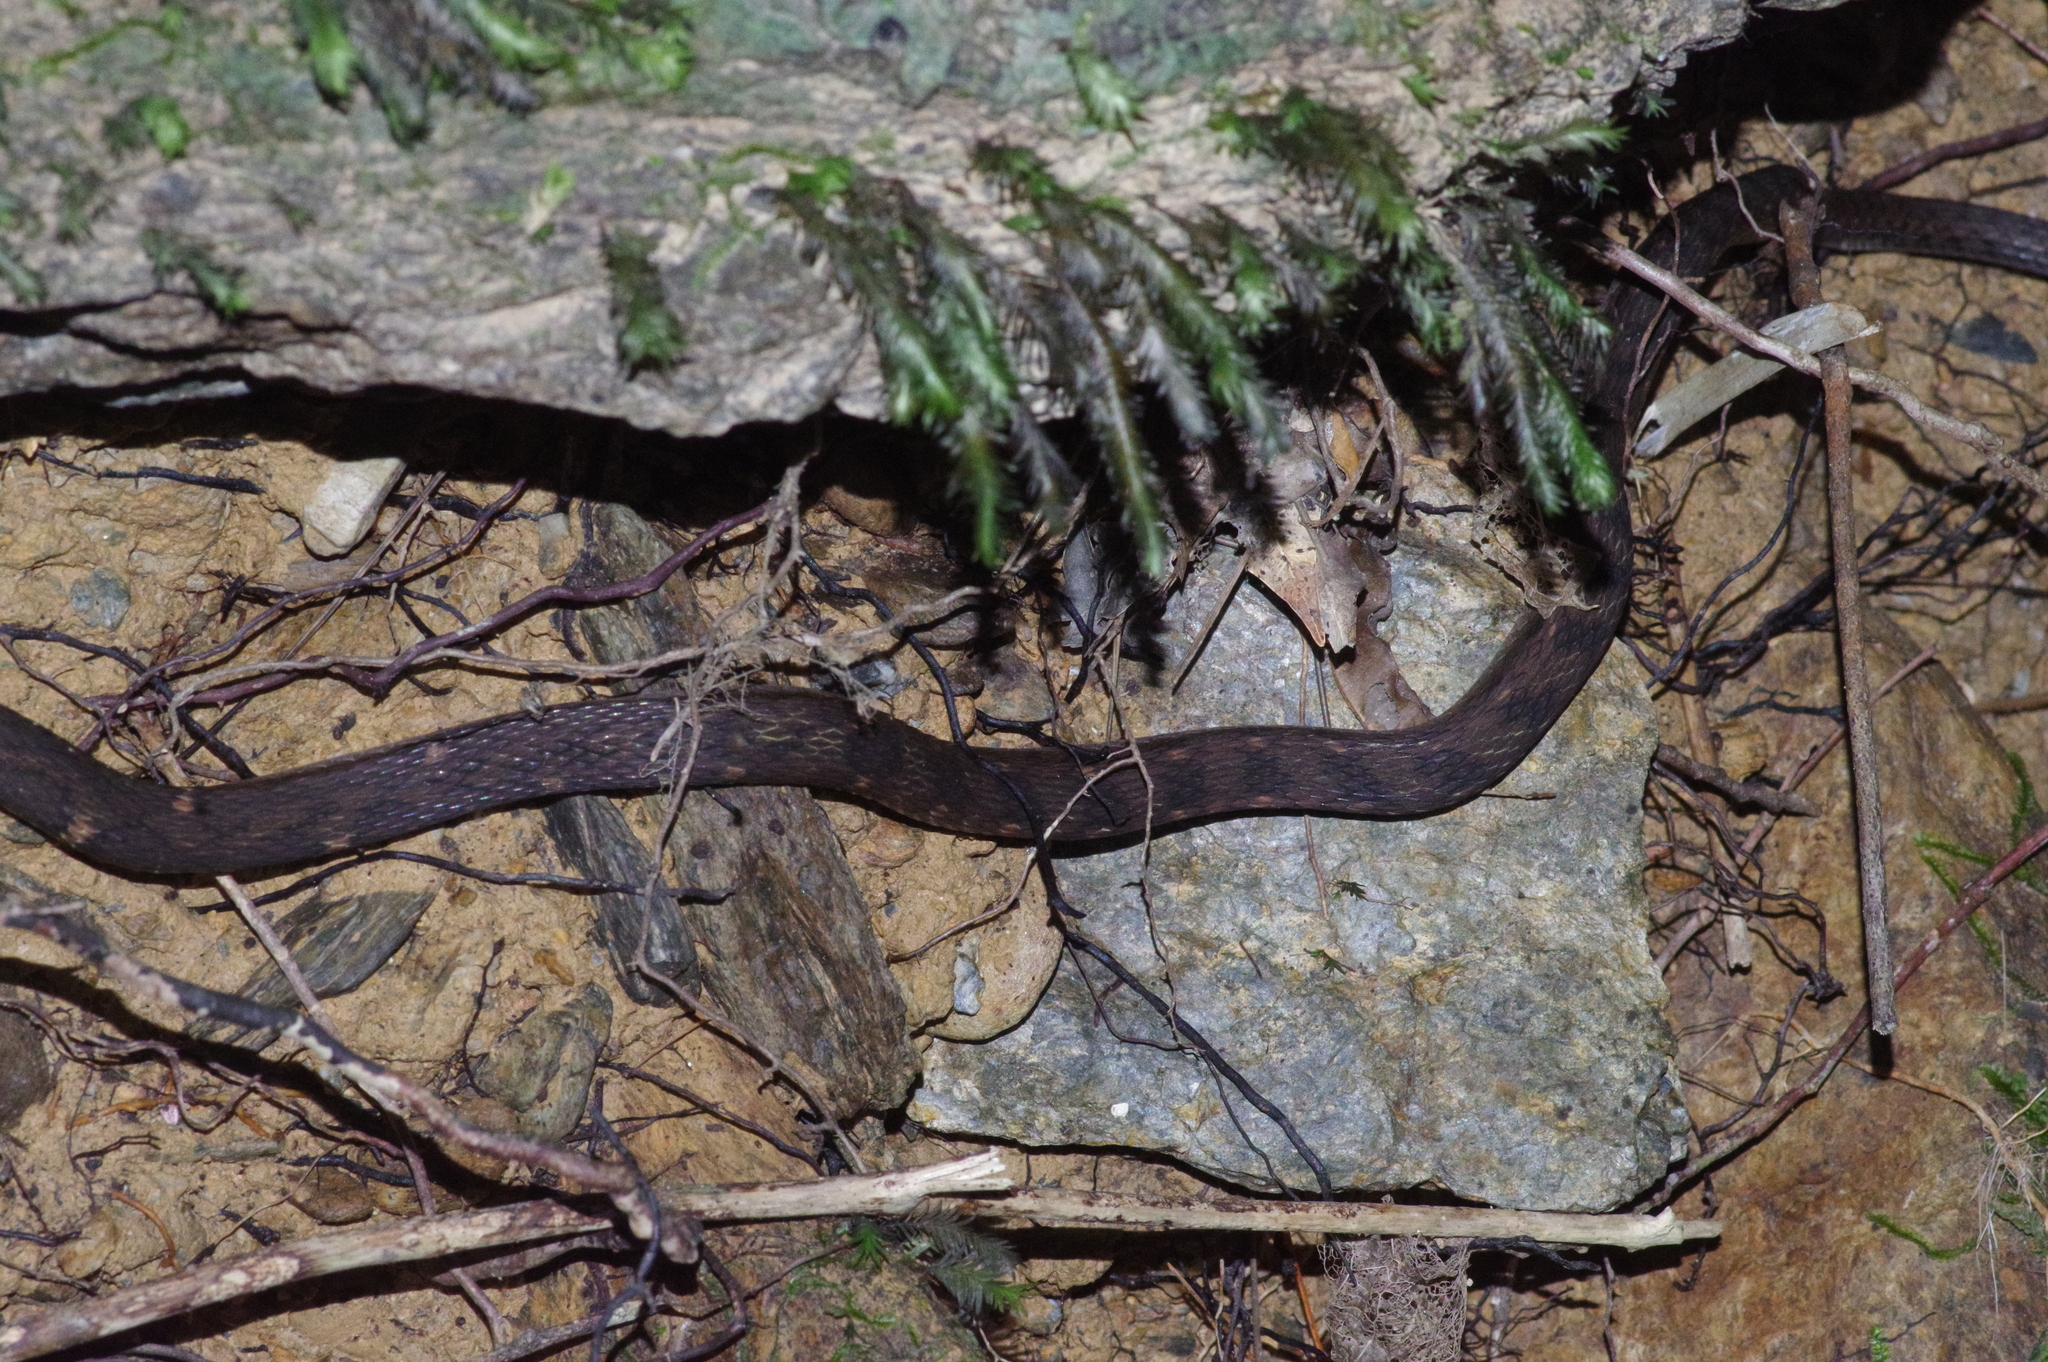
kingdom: Animalia
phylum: Chordata
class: Squamata
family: Colubridae
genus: Hebius
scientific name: Hebius pryeri
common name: Pryer's keelback
